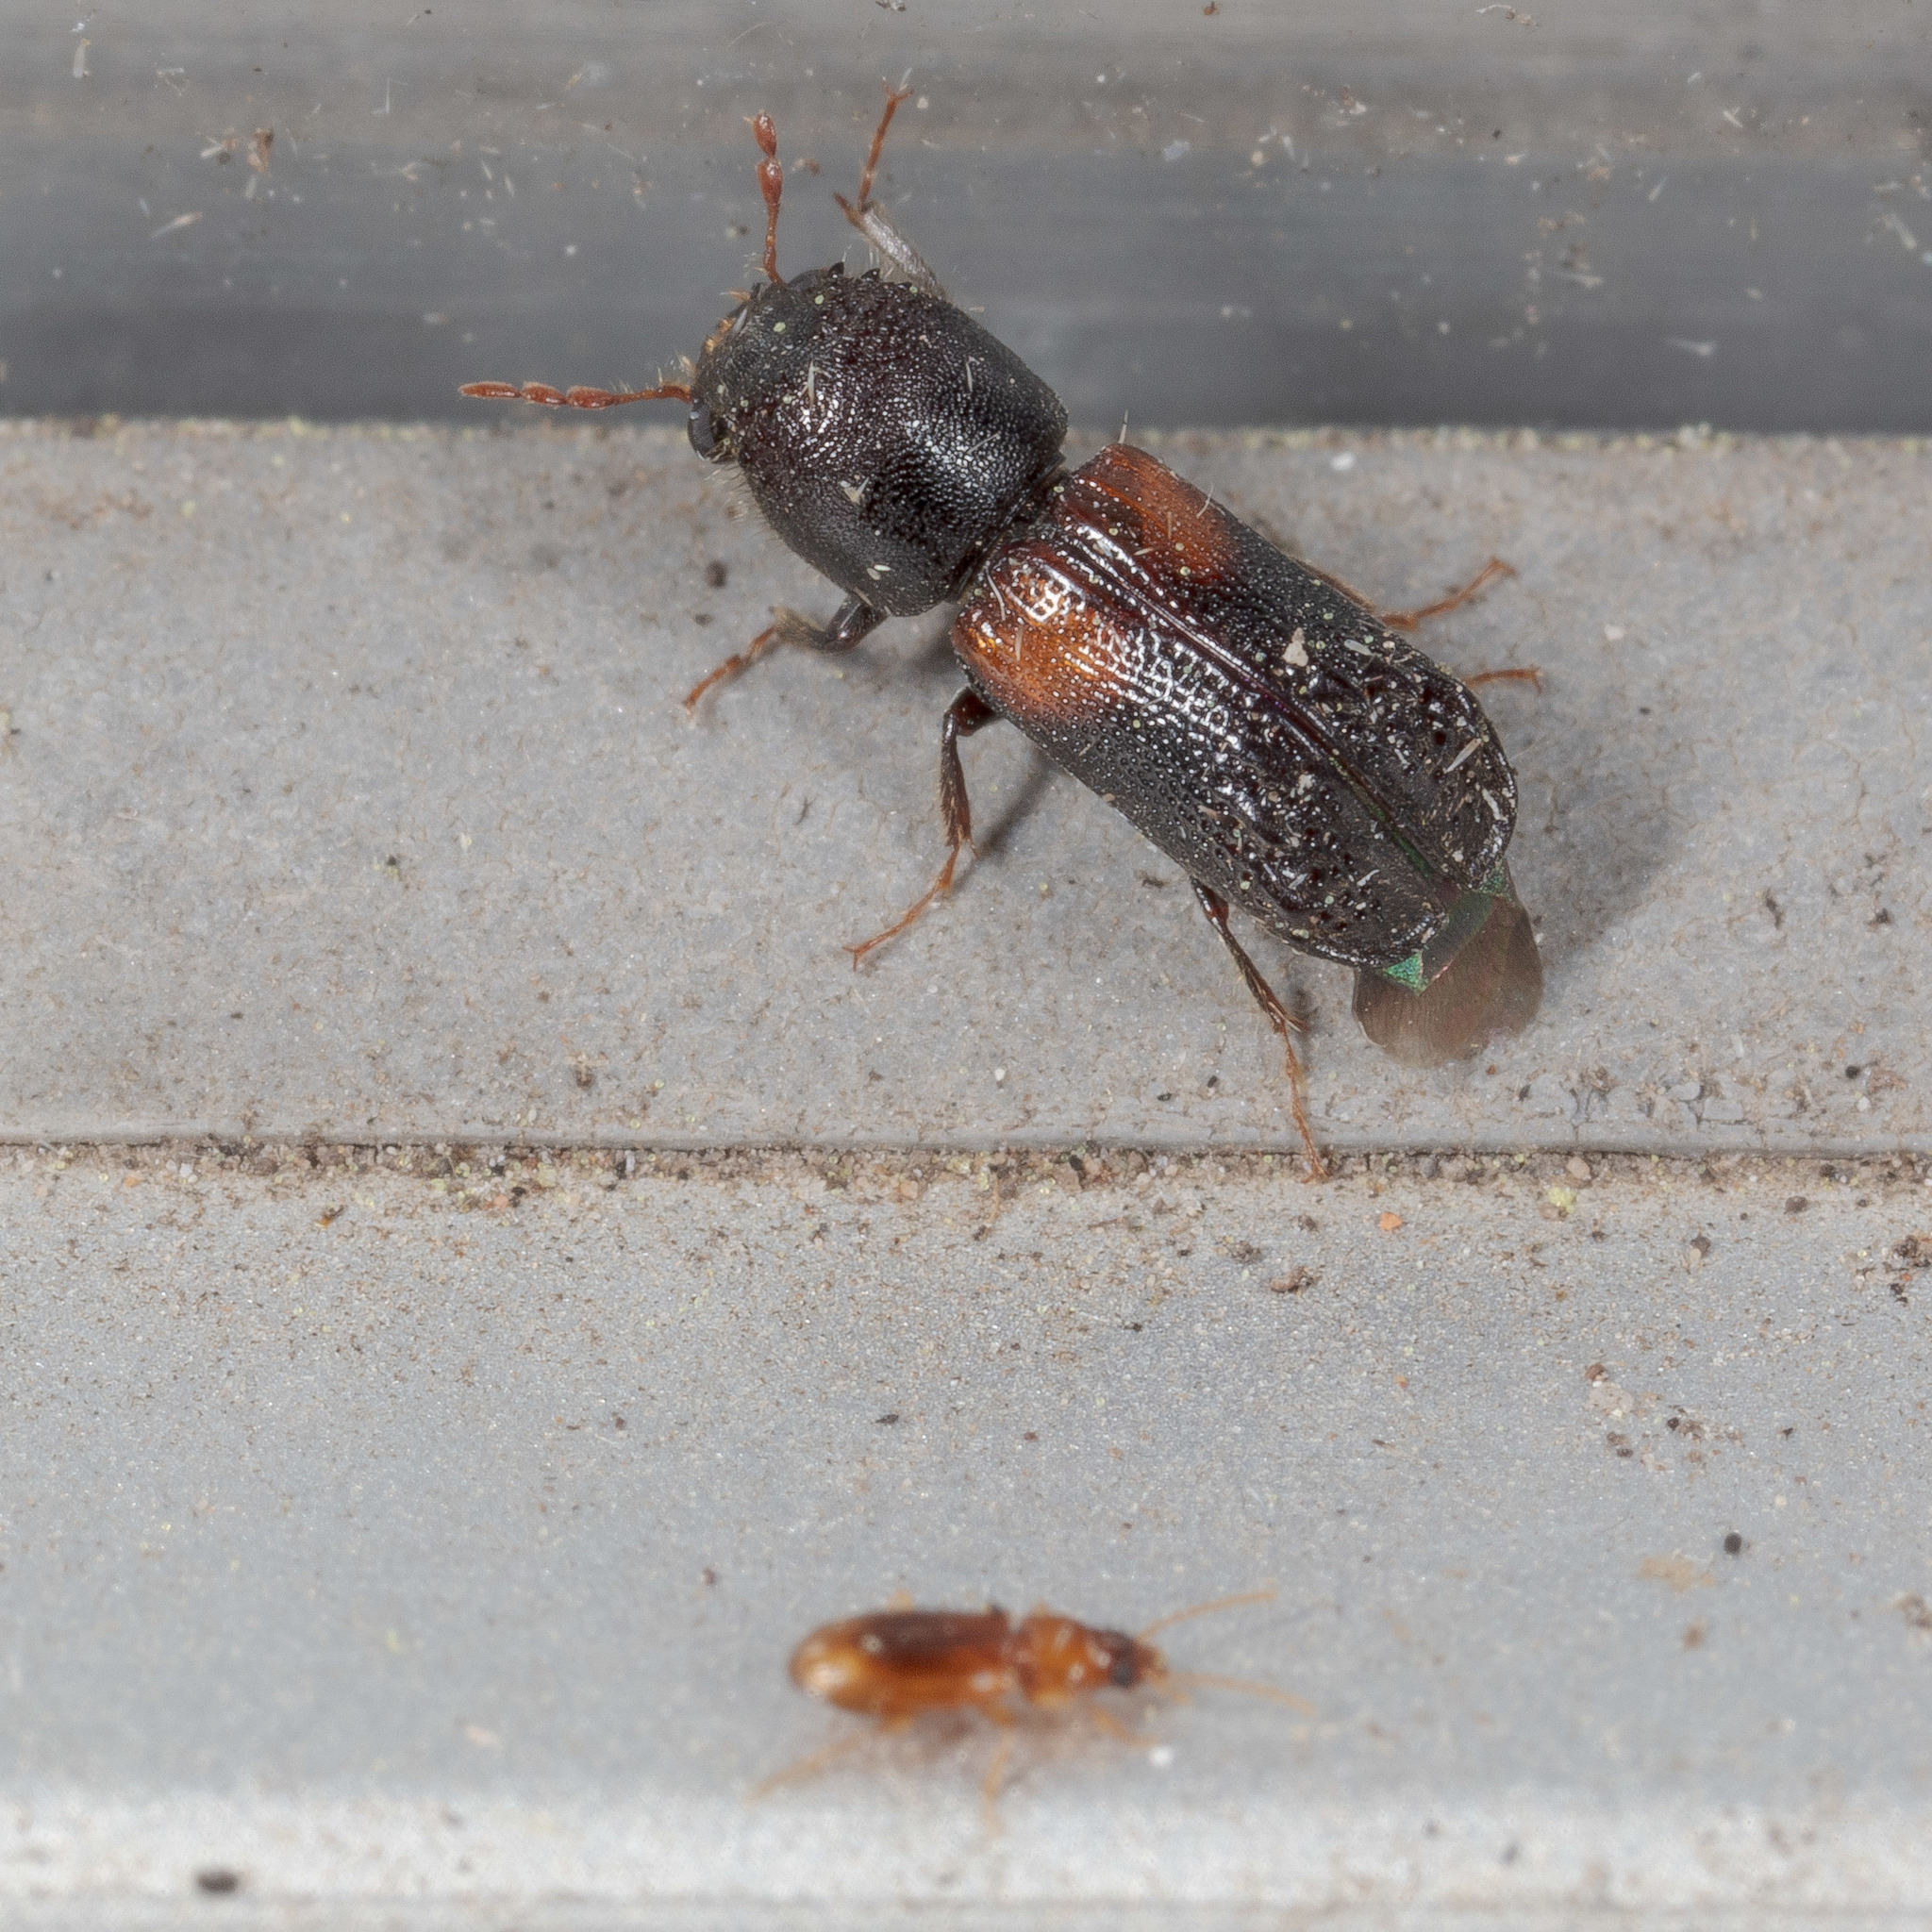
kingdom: Animalia
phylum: Arthropoda
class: Insecta
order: Coleoptera
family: Bostrichidae
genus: Xylobiops
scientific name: Xylobiops basilaris
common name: Red-shouldered bostrichid
